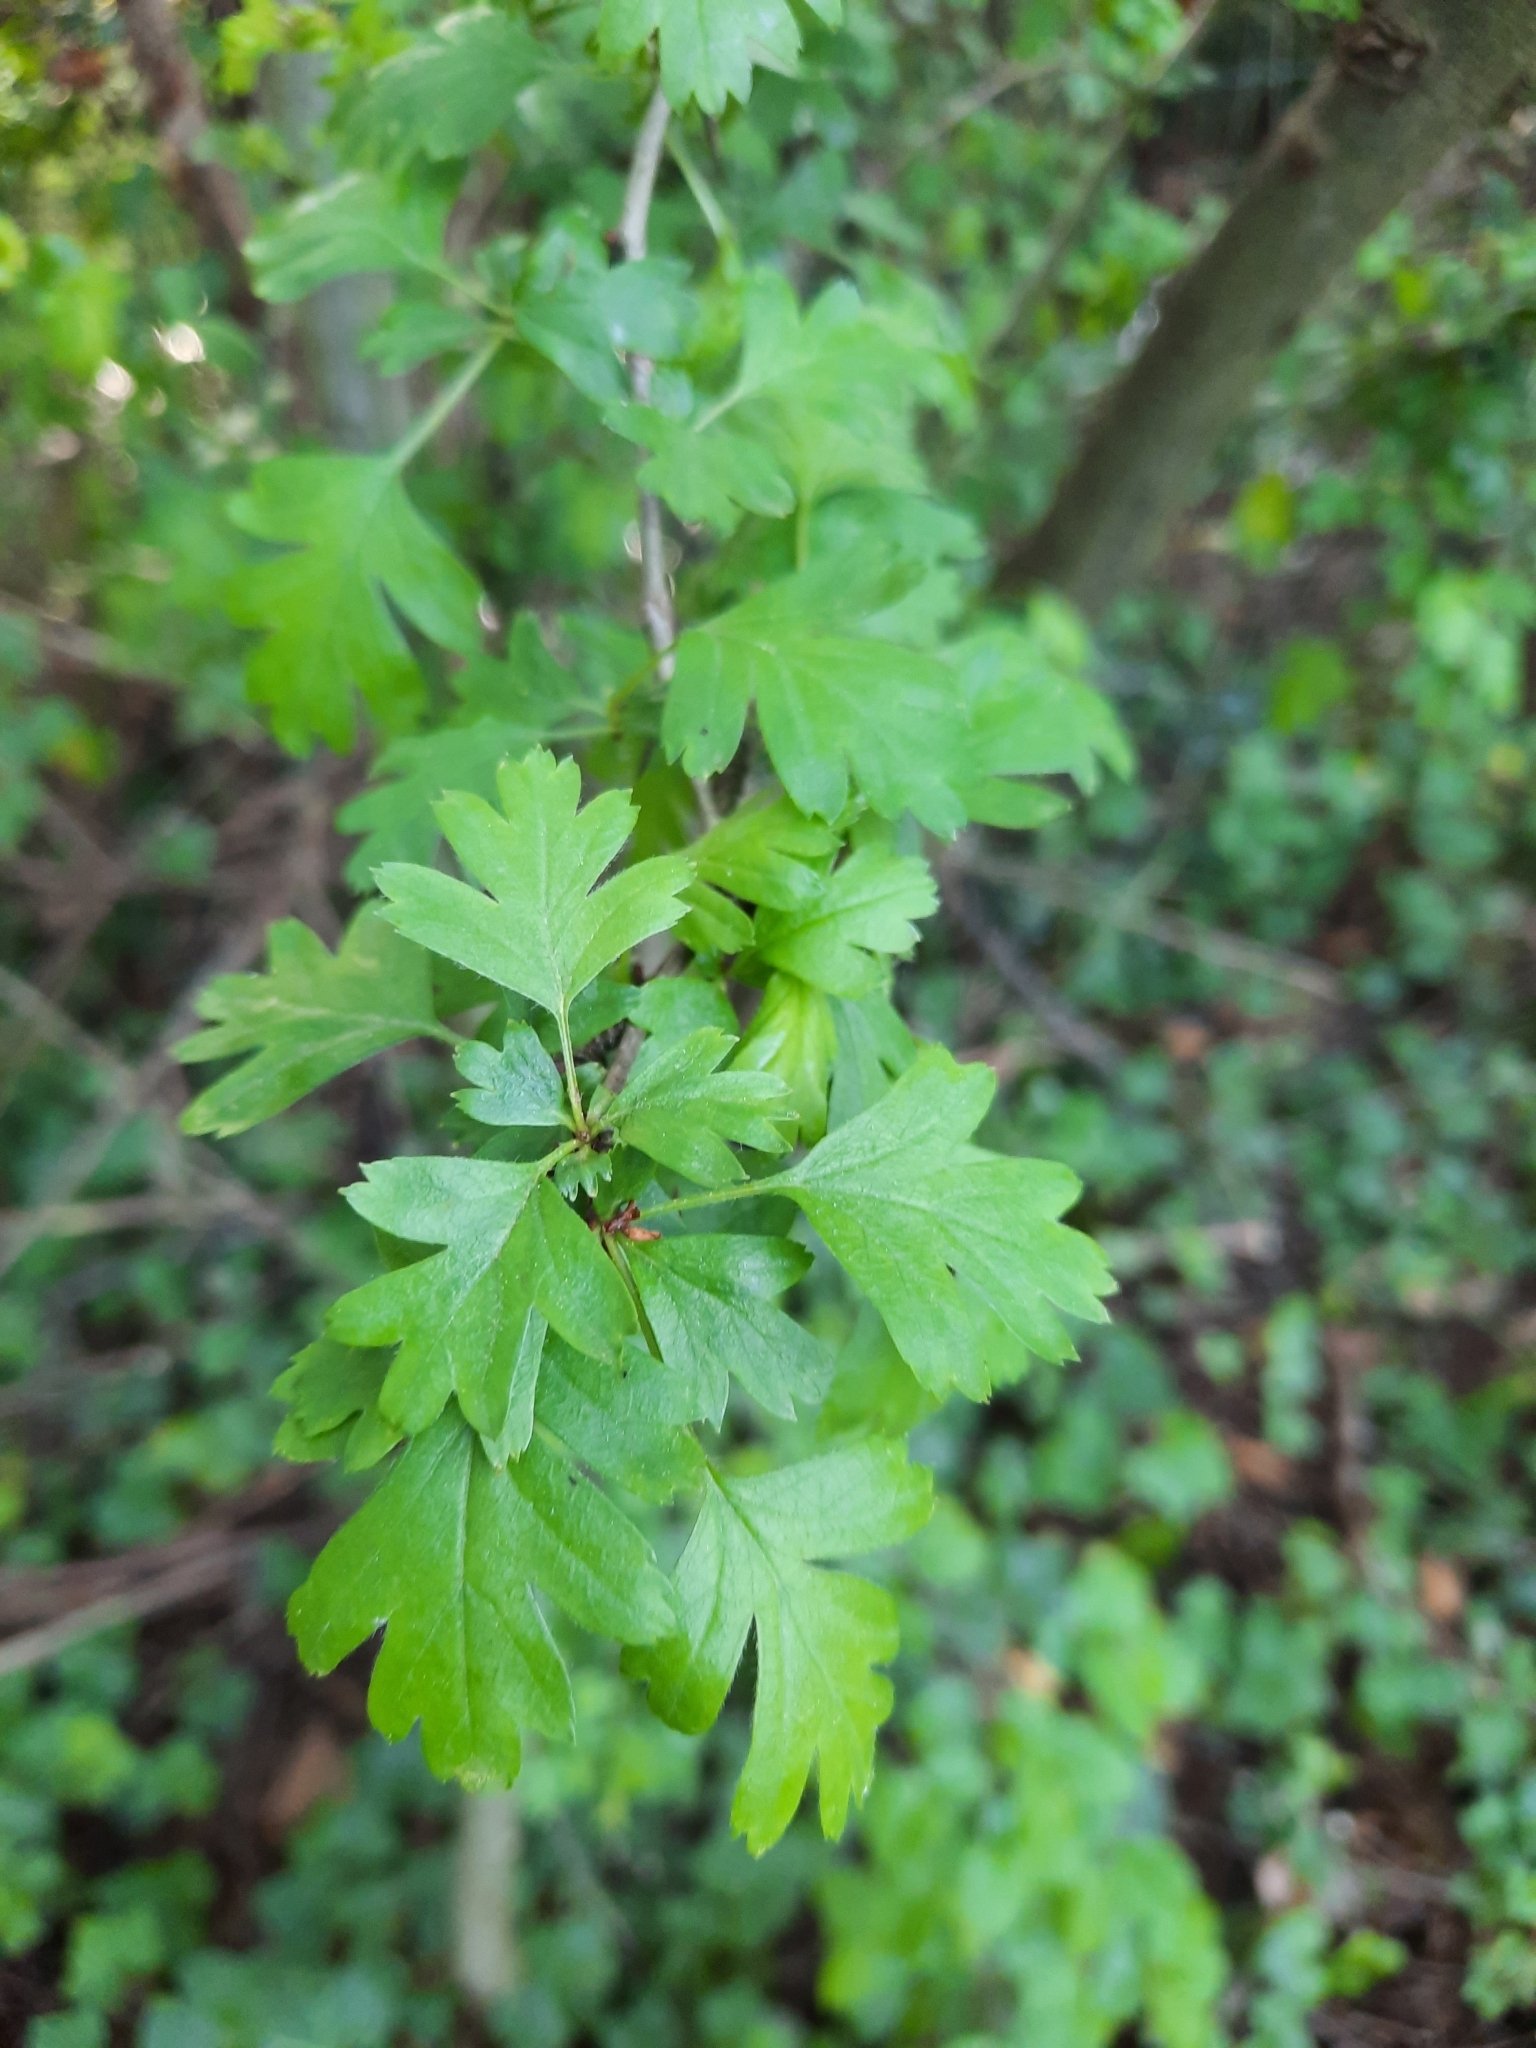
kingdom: Plantae
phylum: Tracheophyta
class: Magnoliopsida
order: Rosales
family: Rosaceae
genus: Crataegus
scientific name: Crataegus monogyna
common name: Hawthorn
